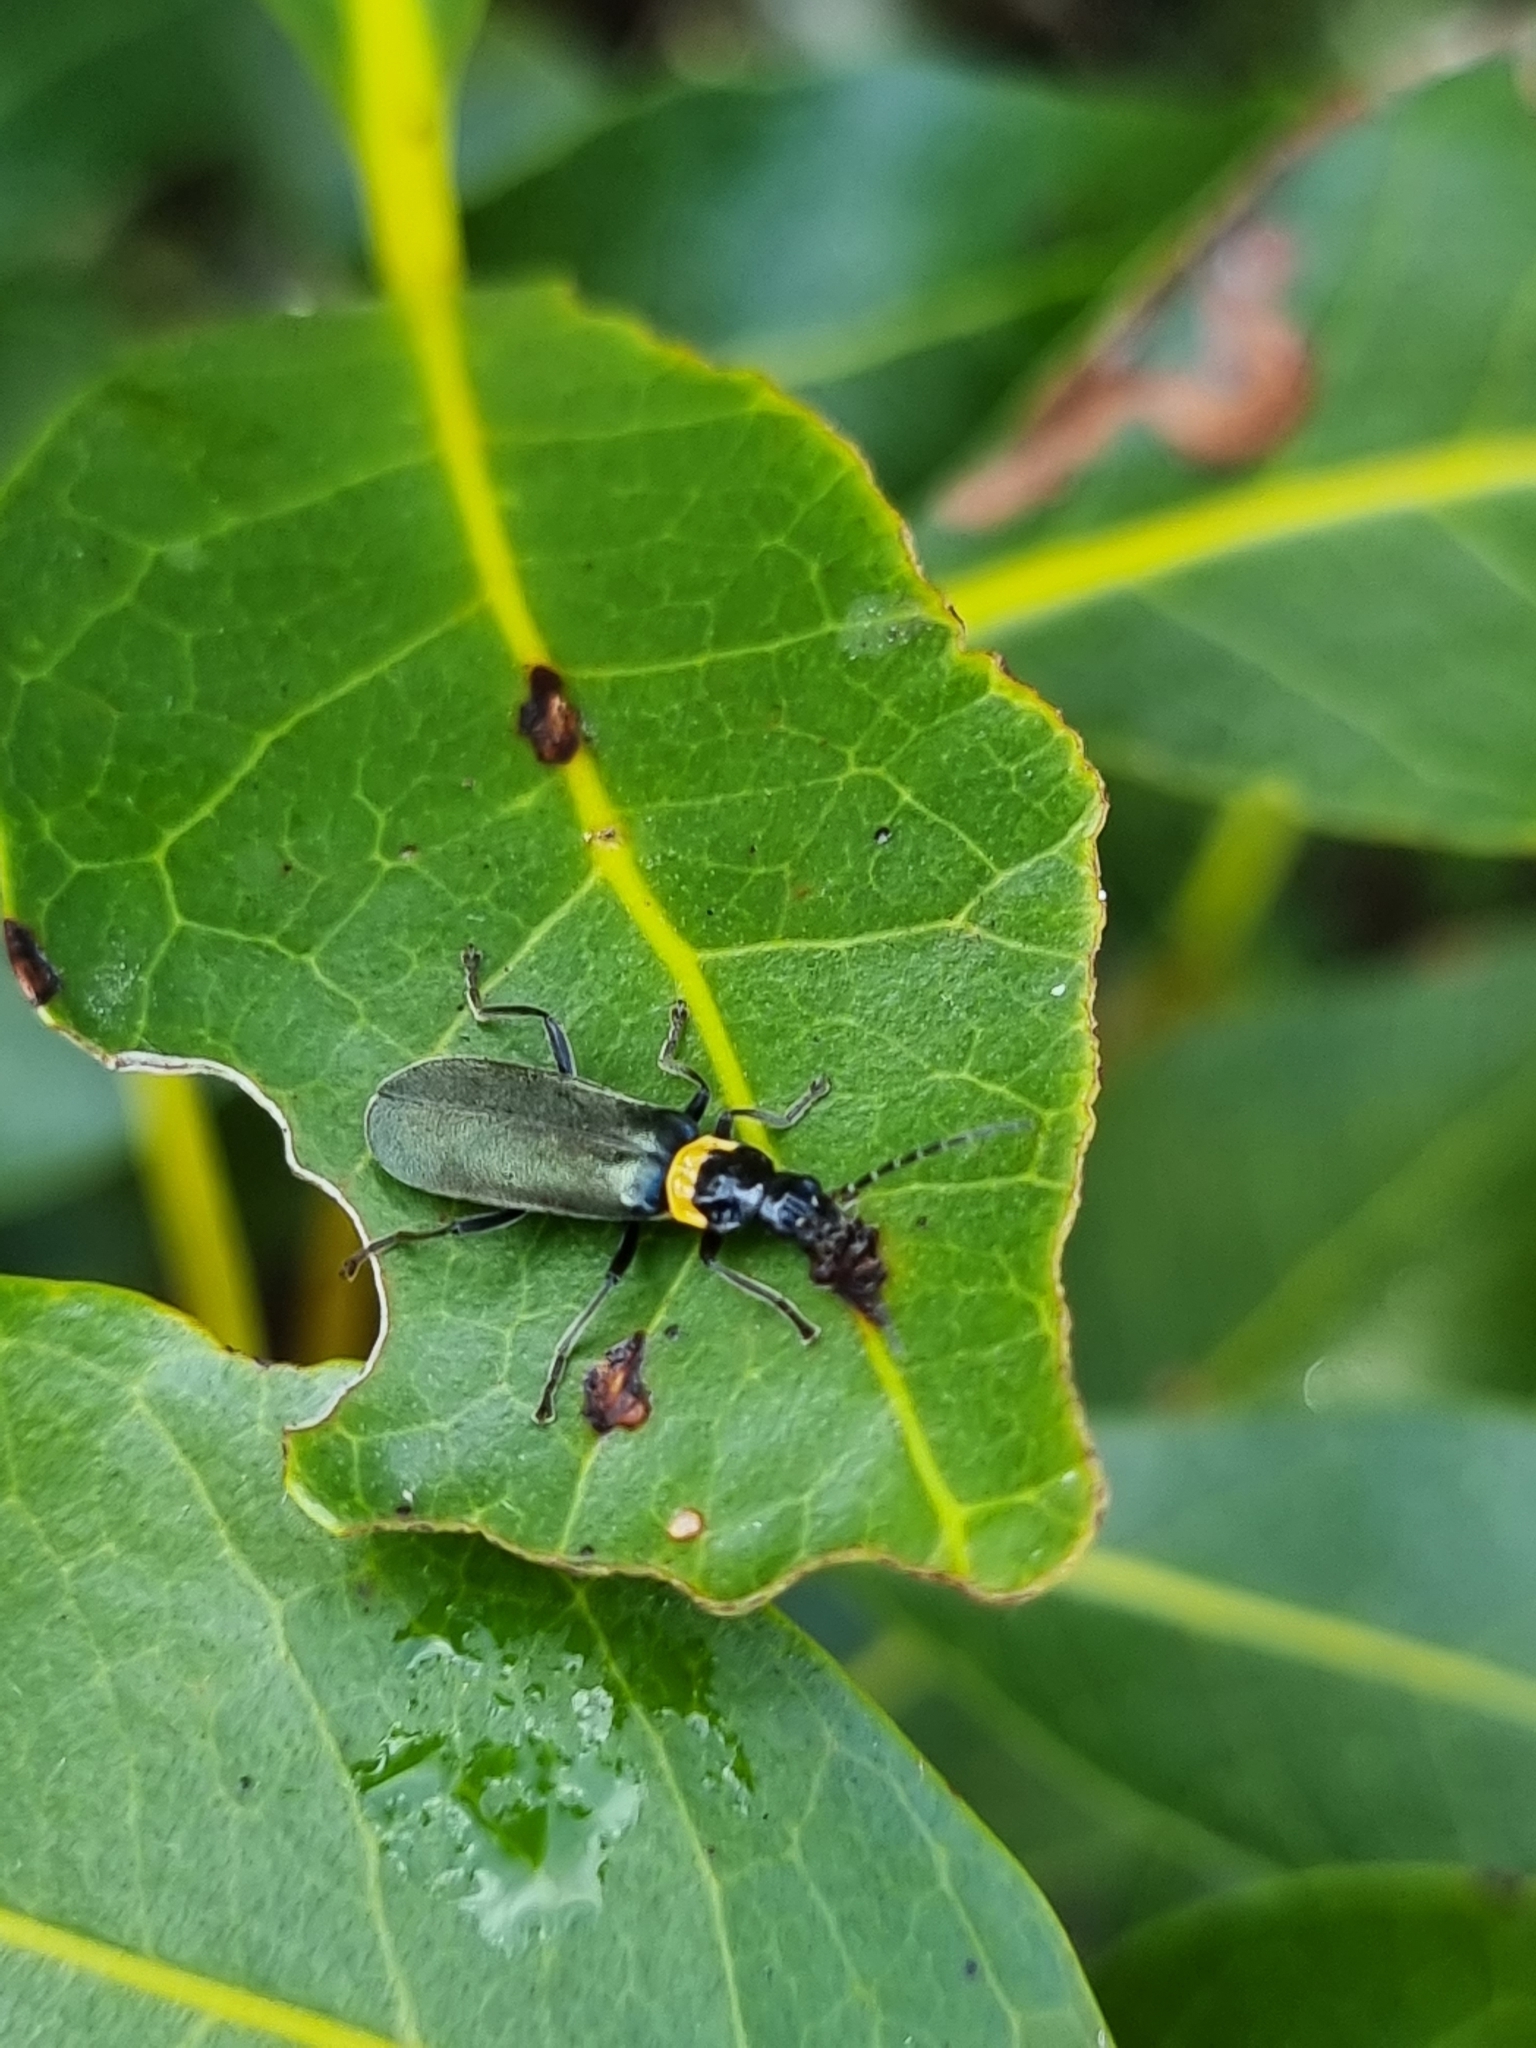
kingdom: Animalia
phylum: Arthropoda
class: Insecta
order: Coleoptera
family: Cantharidae
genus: Chauliognathus
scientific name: Chauliognathus
